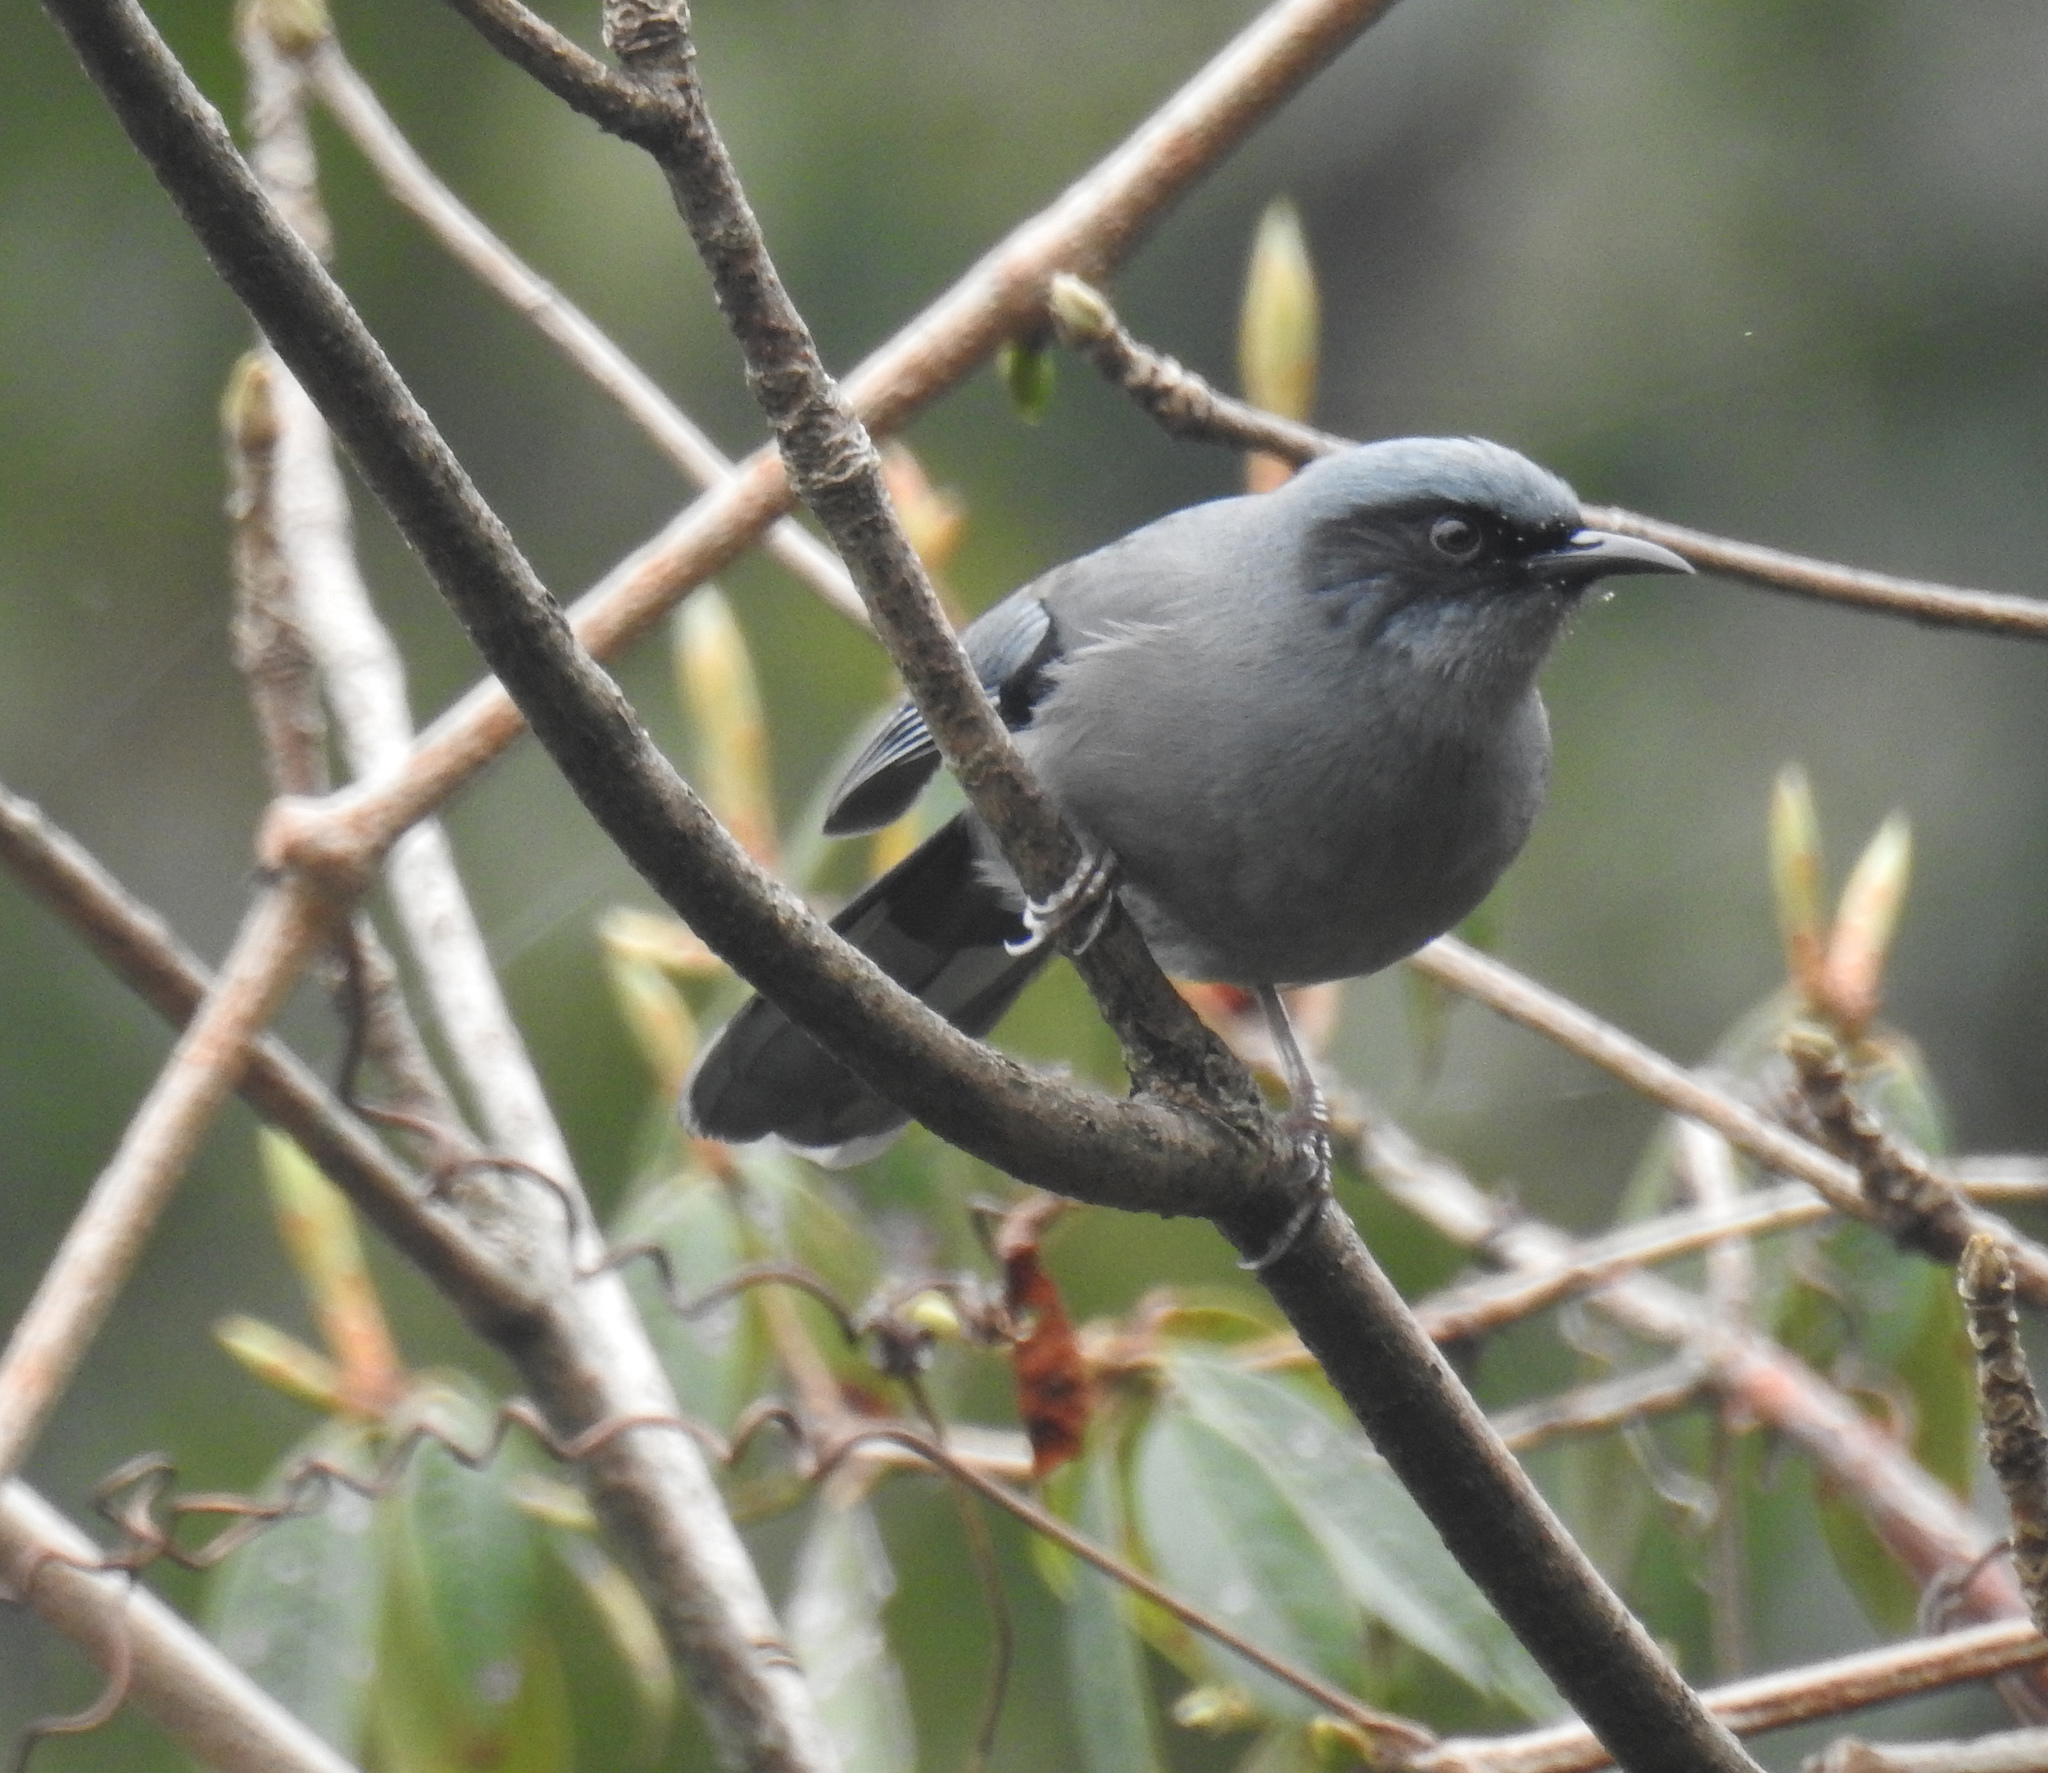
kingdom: Animalia
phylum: Chordata
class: Aves
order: Passeriformes
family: Leiothrichidae
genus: Heterophasia
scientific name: Heterophasia pulchella
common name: Beautiful sibia
